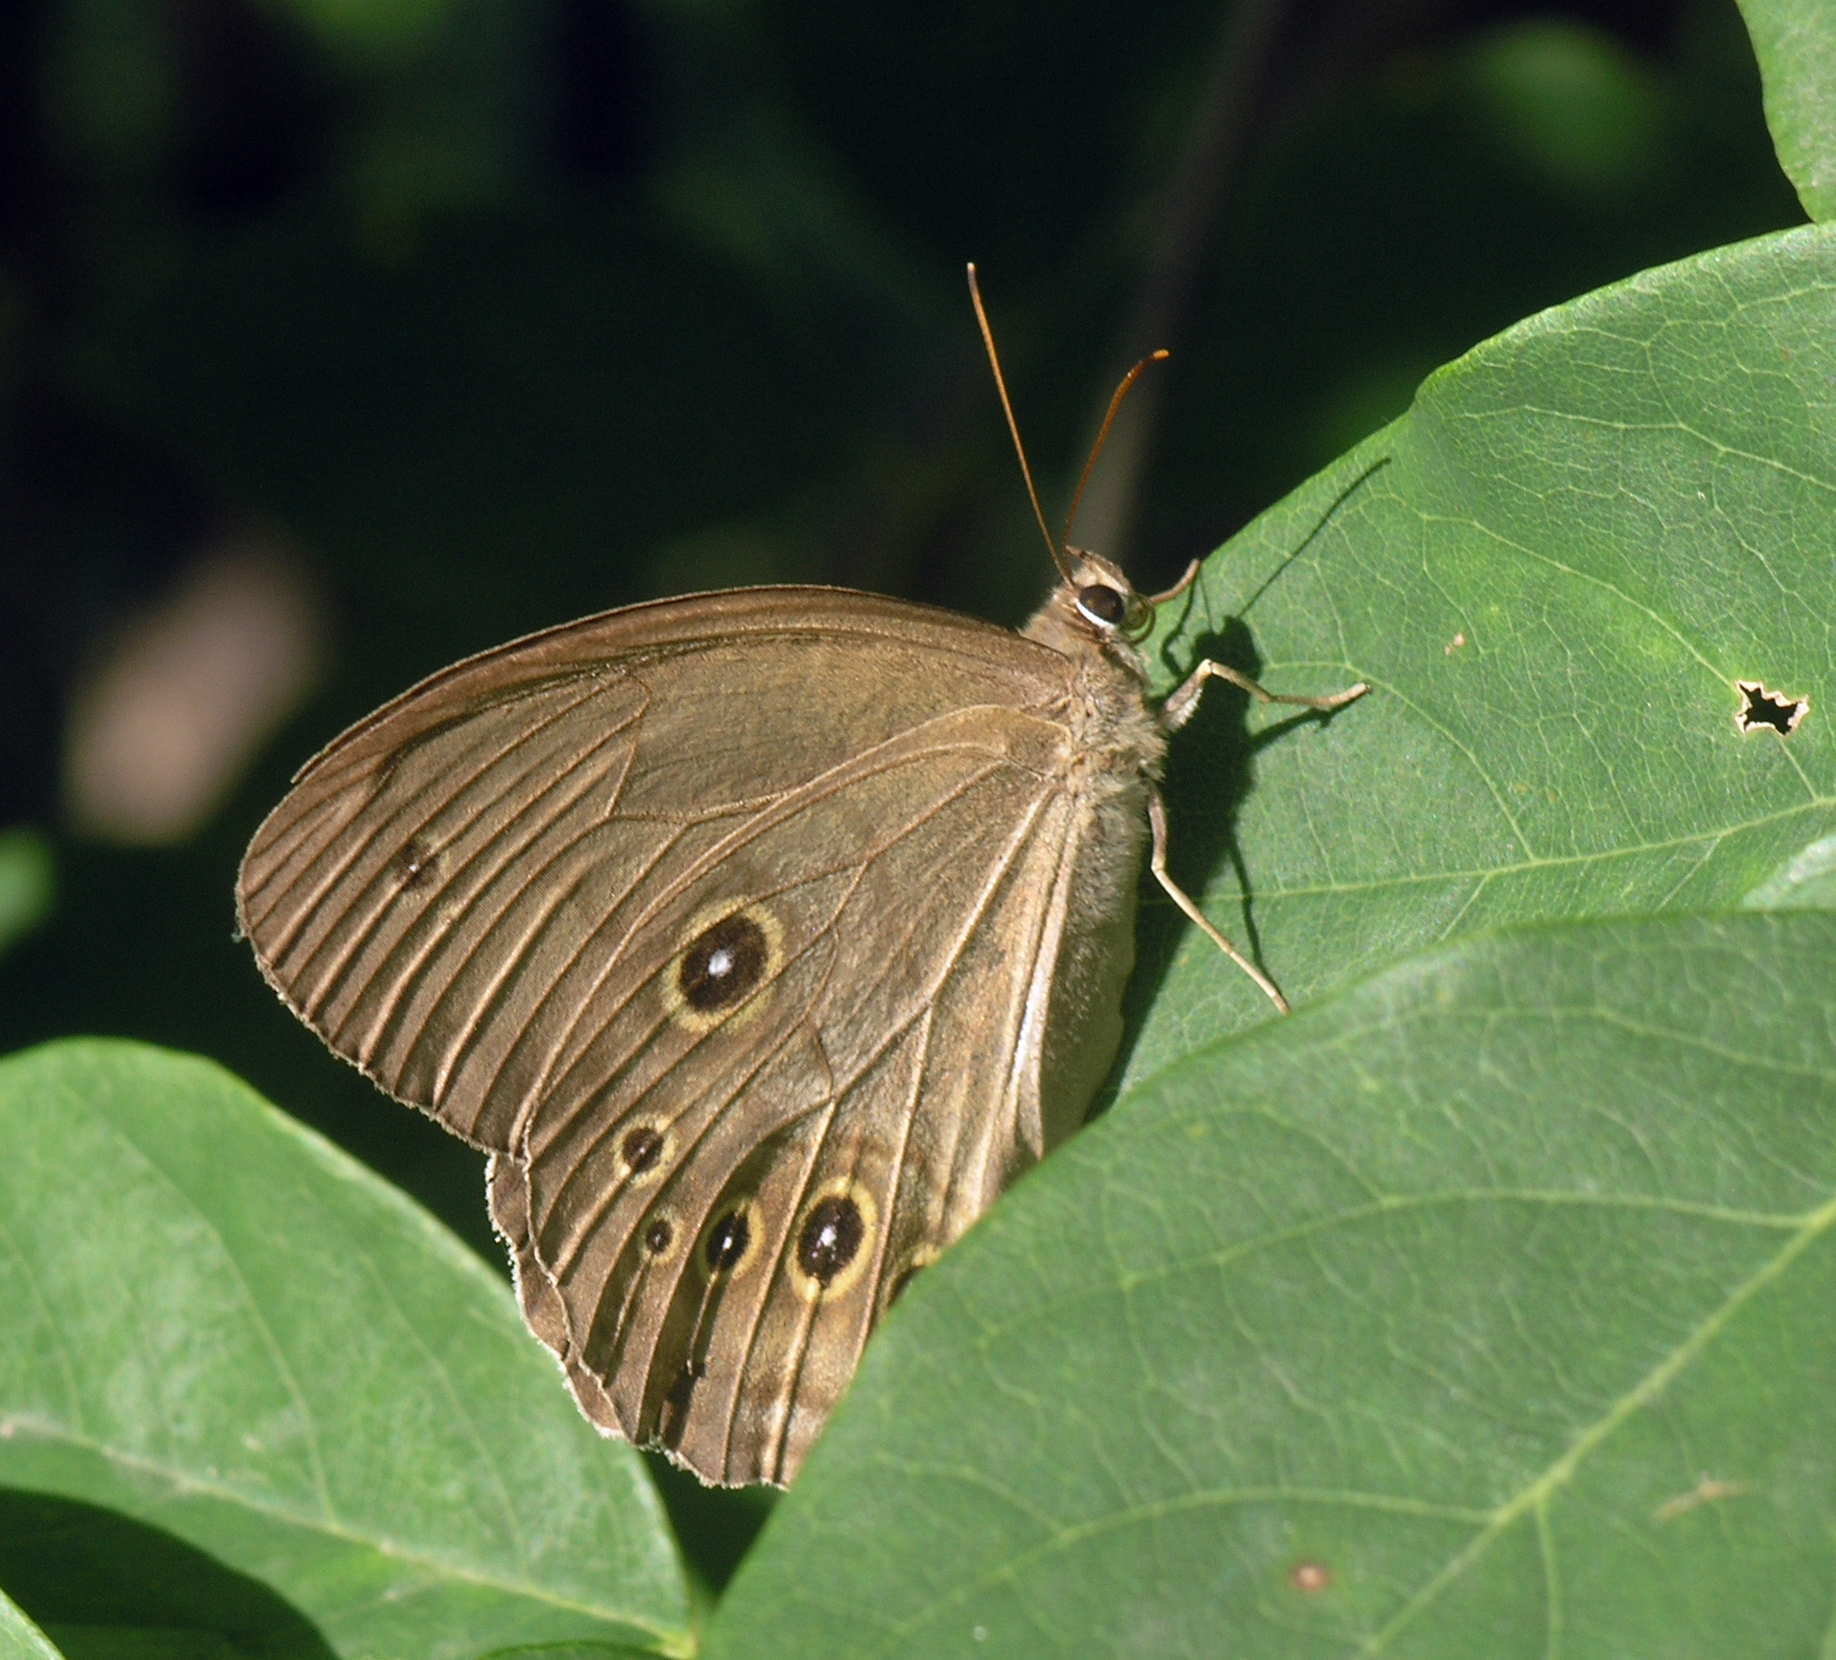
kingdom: Animalia
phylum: Arthropoda
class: Insecta
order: Lepidoptera
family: Nymphalidae
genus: Ninguta
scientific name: Ninguta schrenckii
